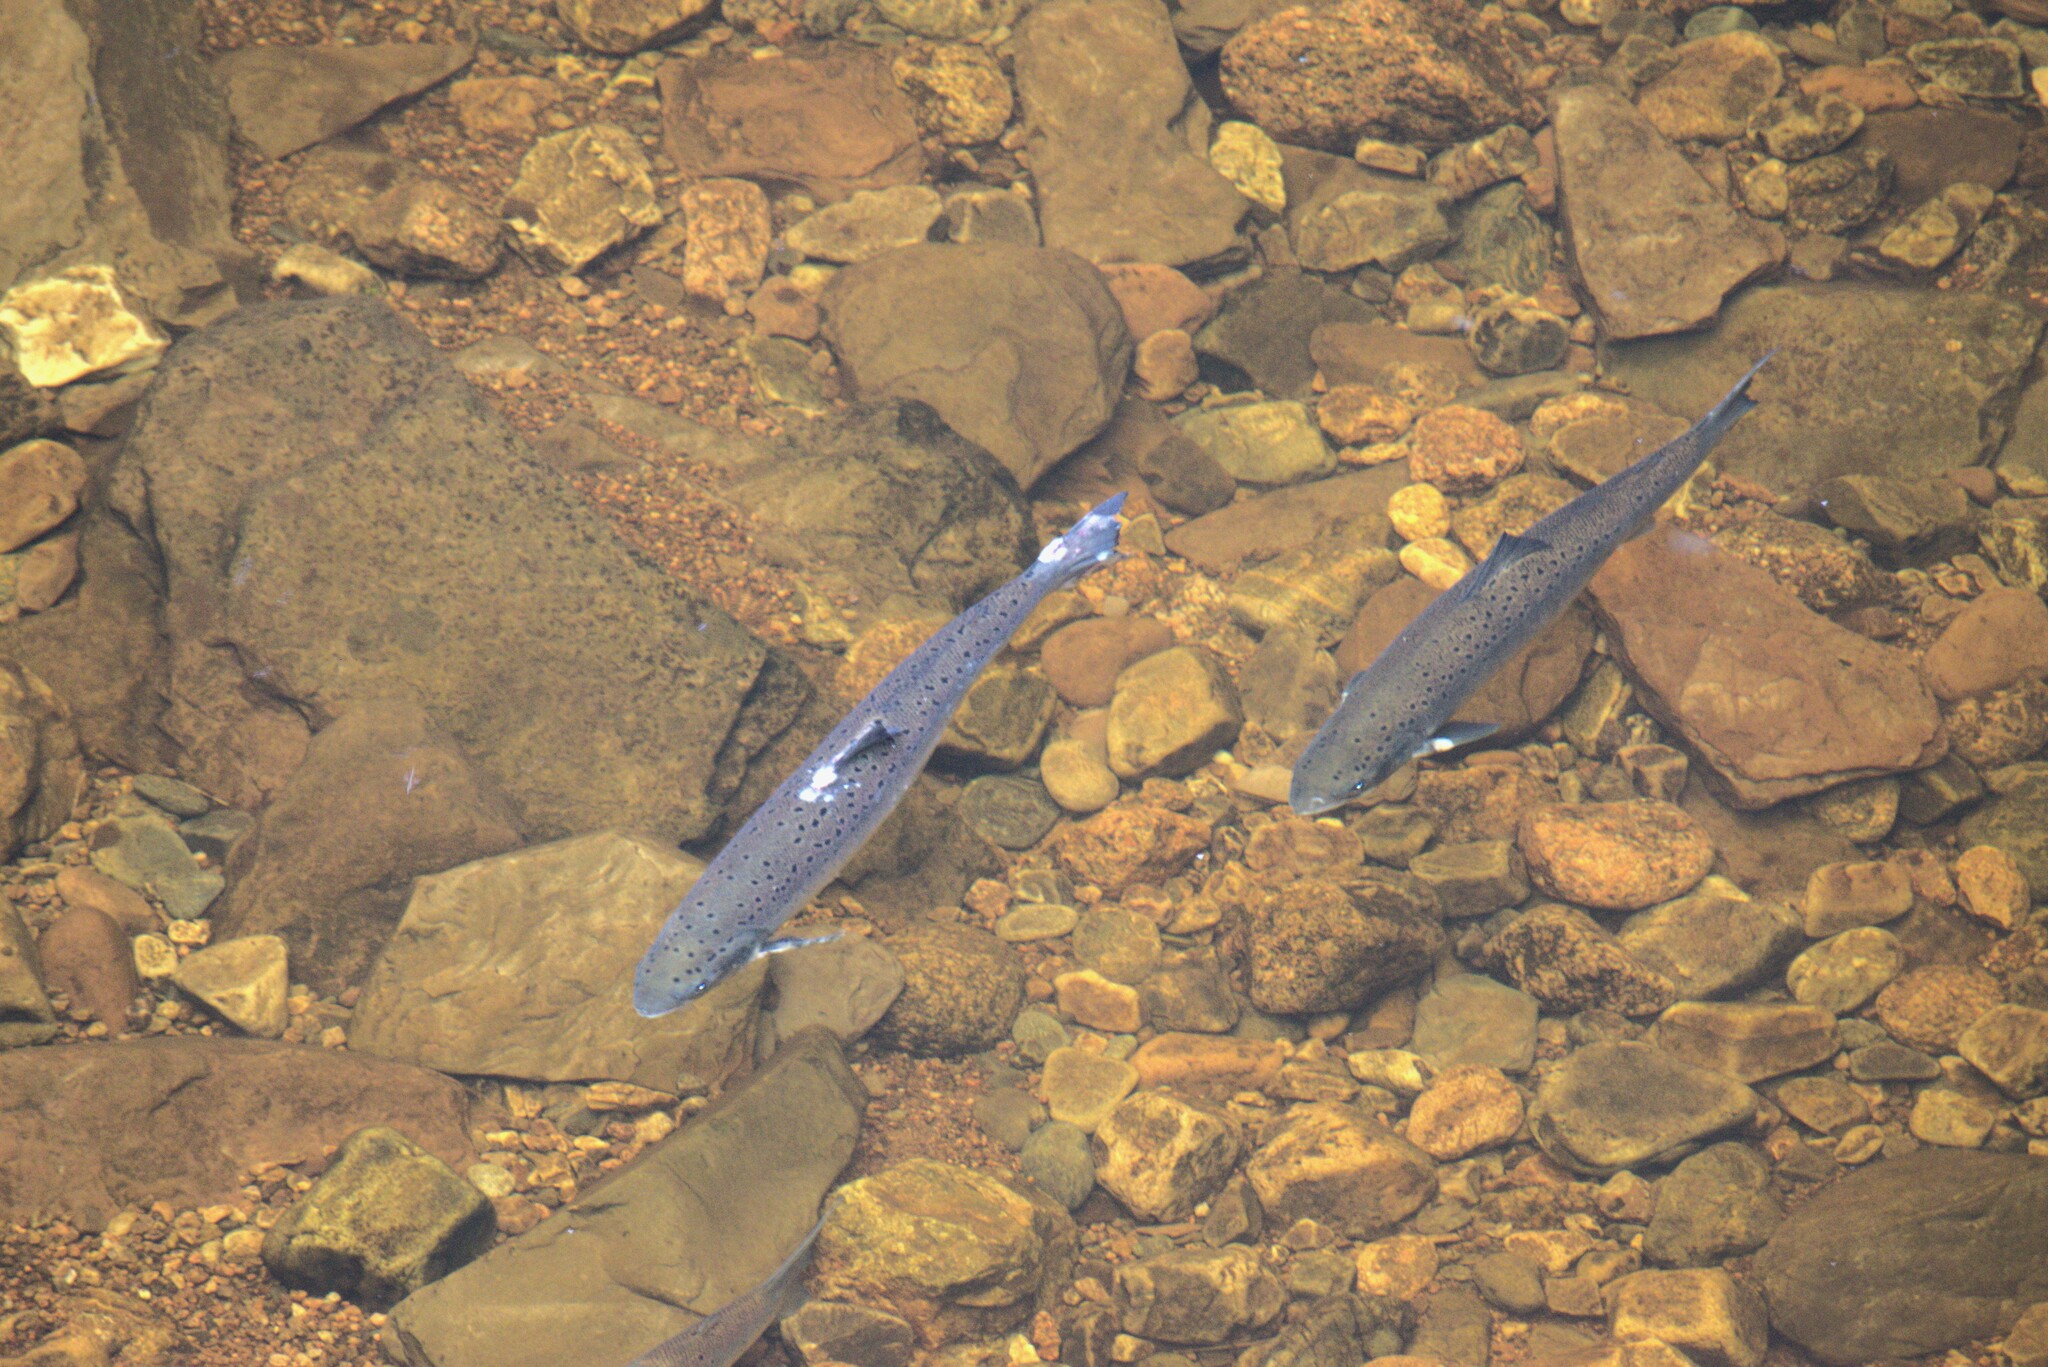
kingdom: Animalia
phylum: Chordata
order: Salmoniformes
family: Salmonidae
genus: Salmo
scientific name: Salmo salar
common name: Atlantic salmon
